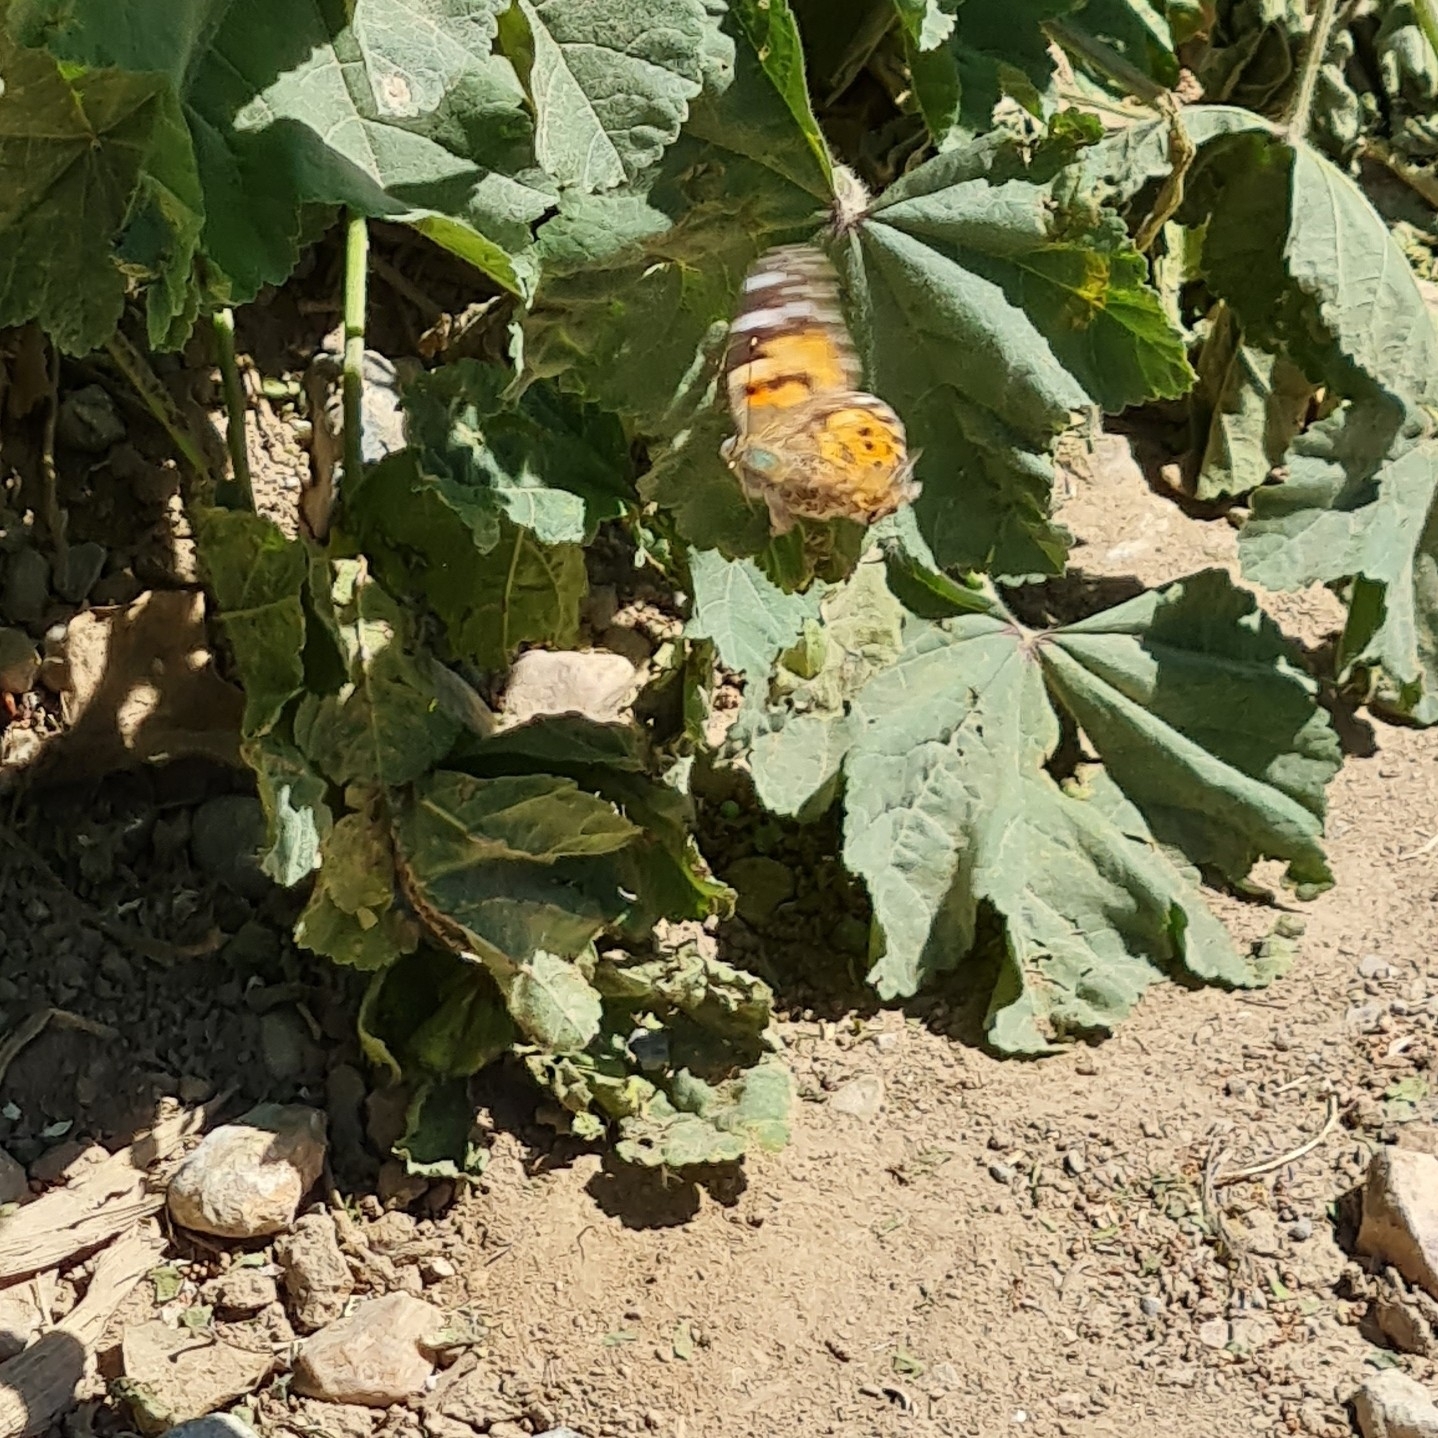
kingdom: Animalia
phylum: Arthropoda
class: Insecta
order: Lepidoptera
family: Nymphalidae
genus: Vanessa
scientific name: Vanessa cardui
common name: Painted lady
